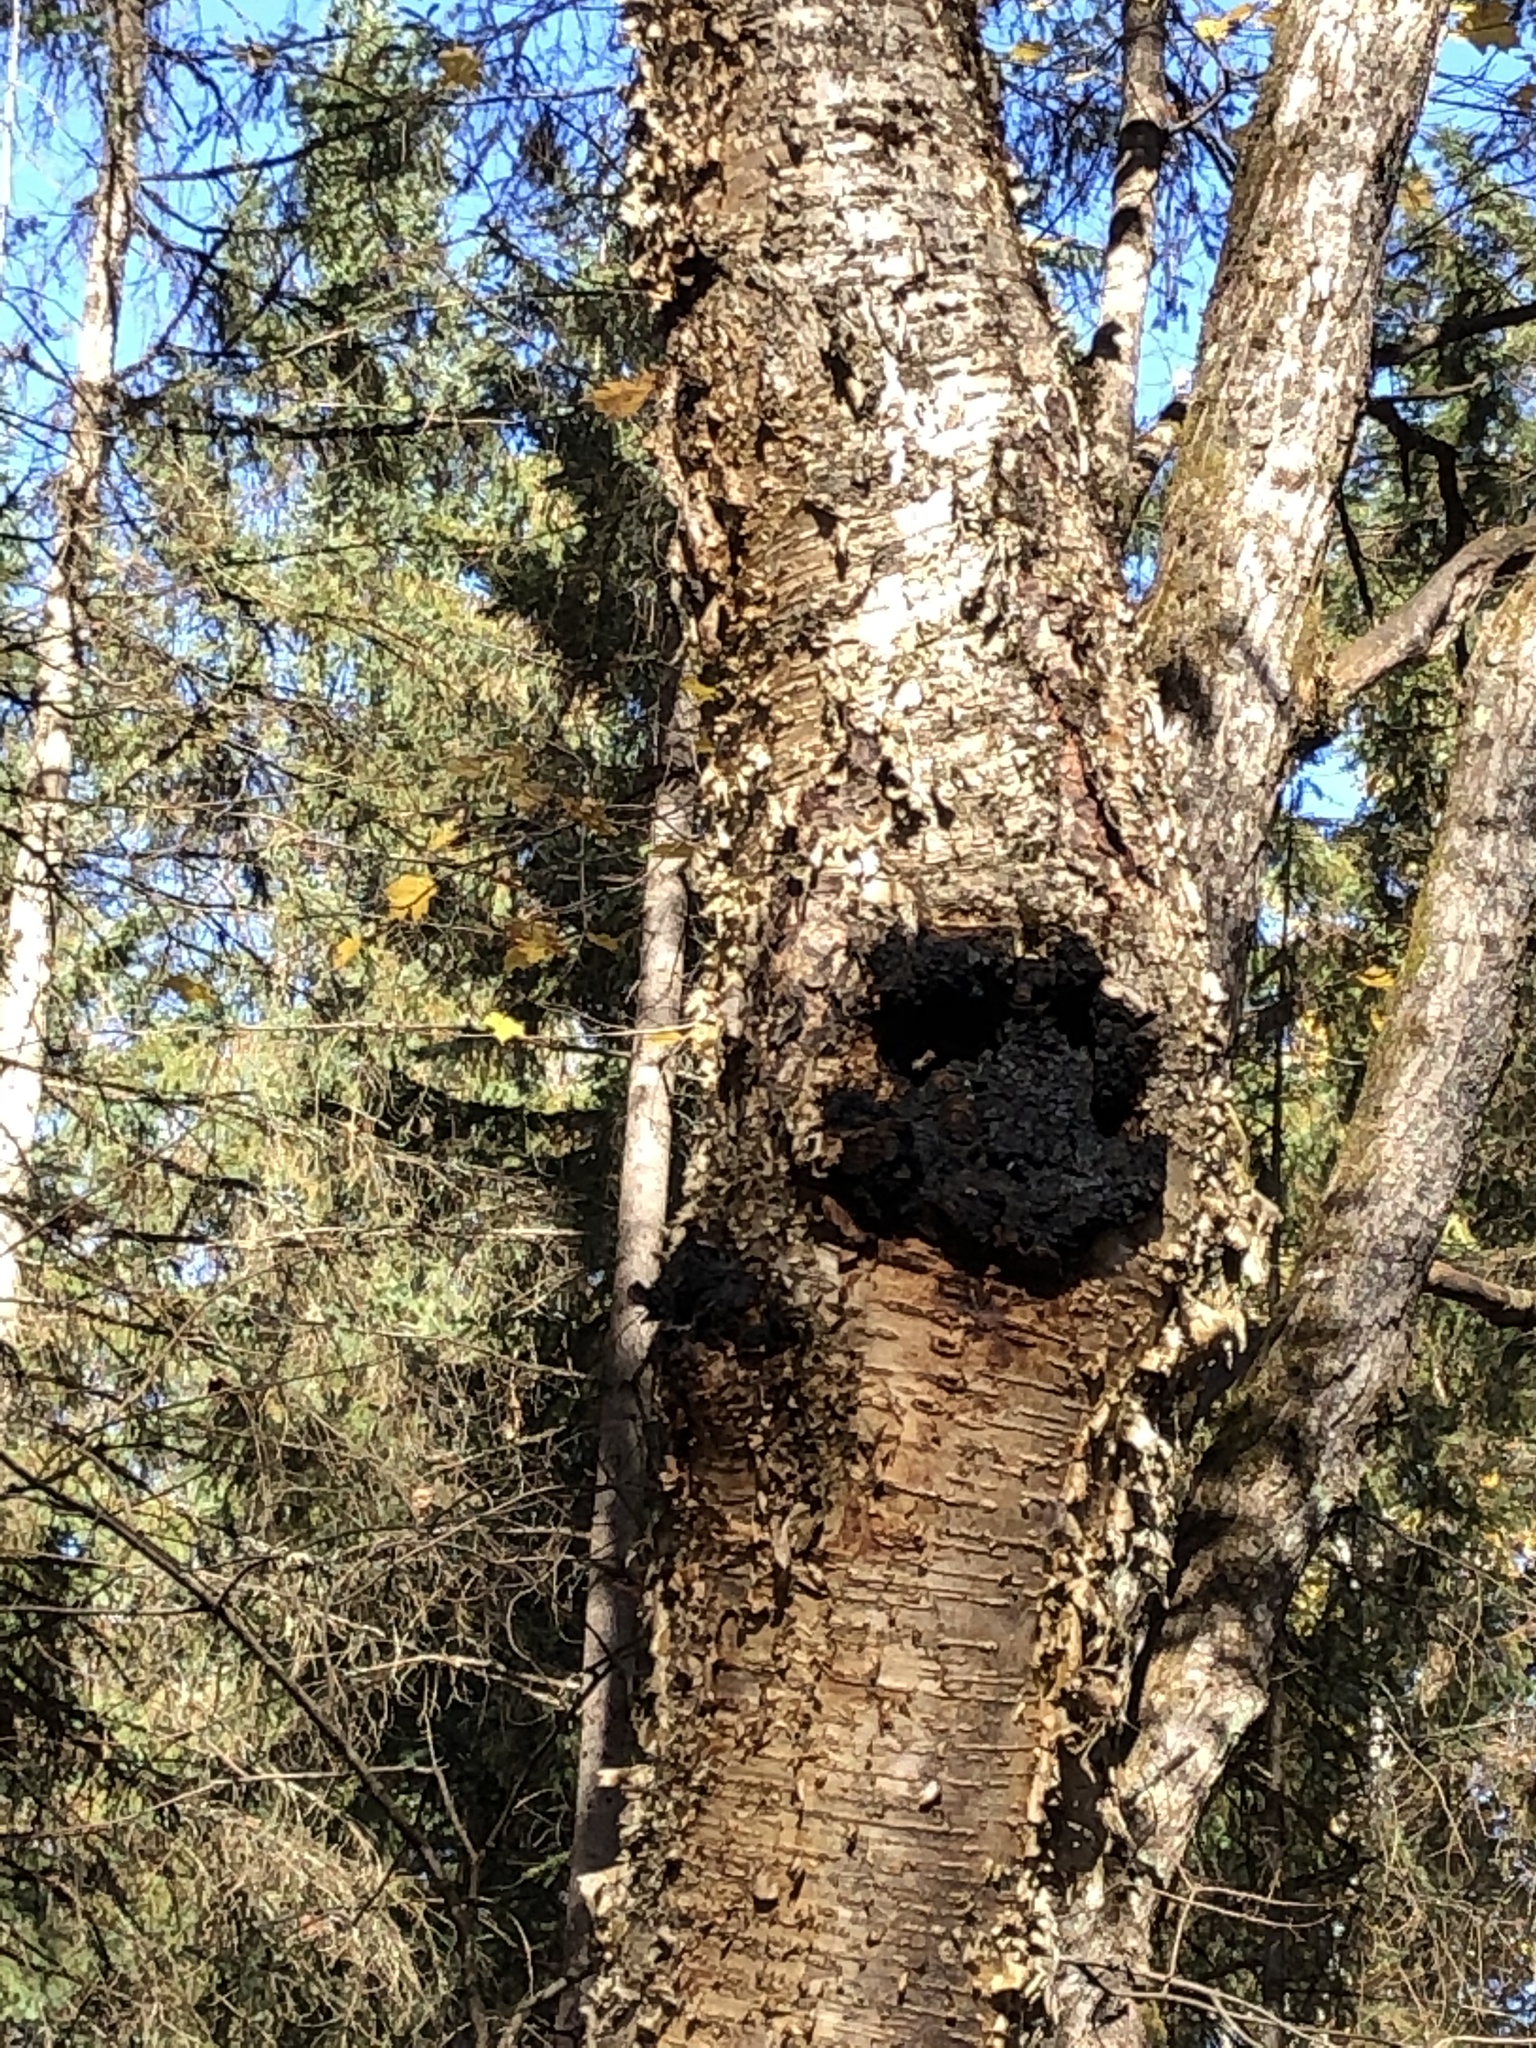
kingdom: Fungi
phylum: Basidiomycota
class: Agaricomycetes
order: Hymenochaetales
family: Hymenochaetaceae
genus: Inonotus
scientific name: Inonotus obliquus
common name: Chaga
